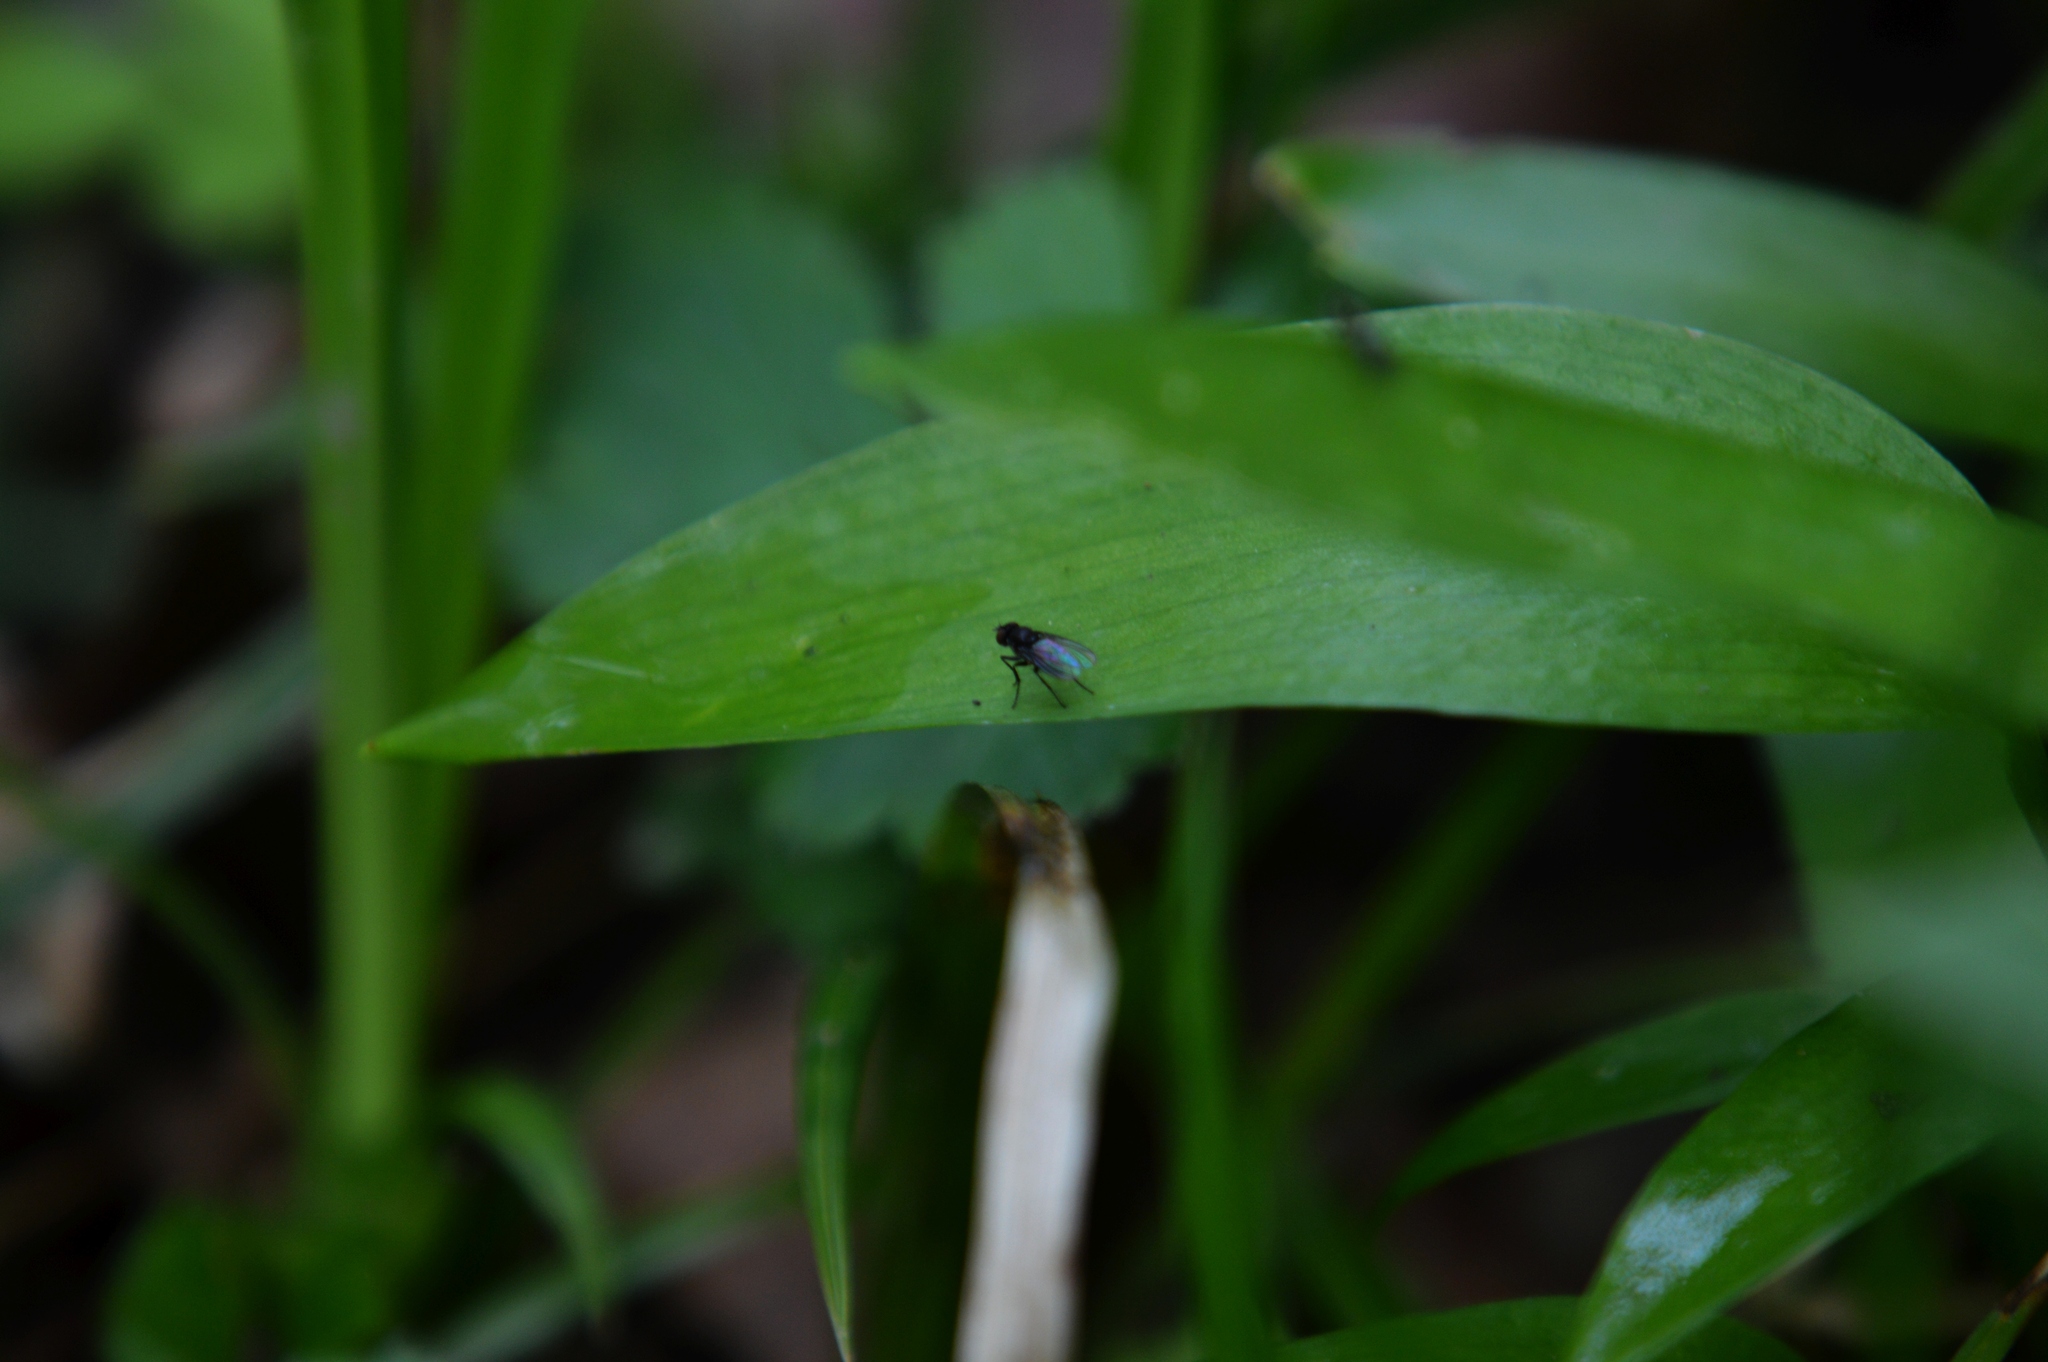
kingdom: Animalia
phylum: Arthropoda
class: Insecta
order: Diptera
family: Muscidae
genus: Coenosia
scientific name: Coenosia agromyzina
